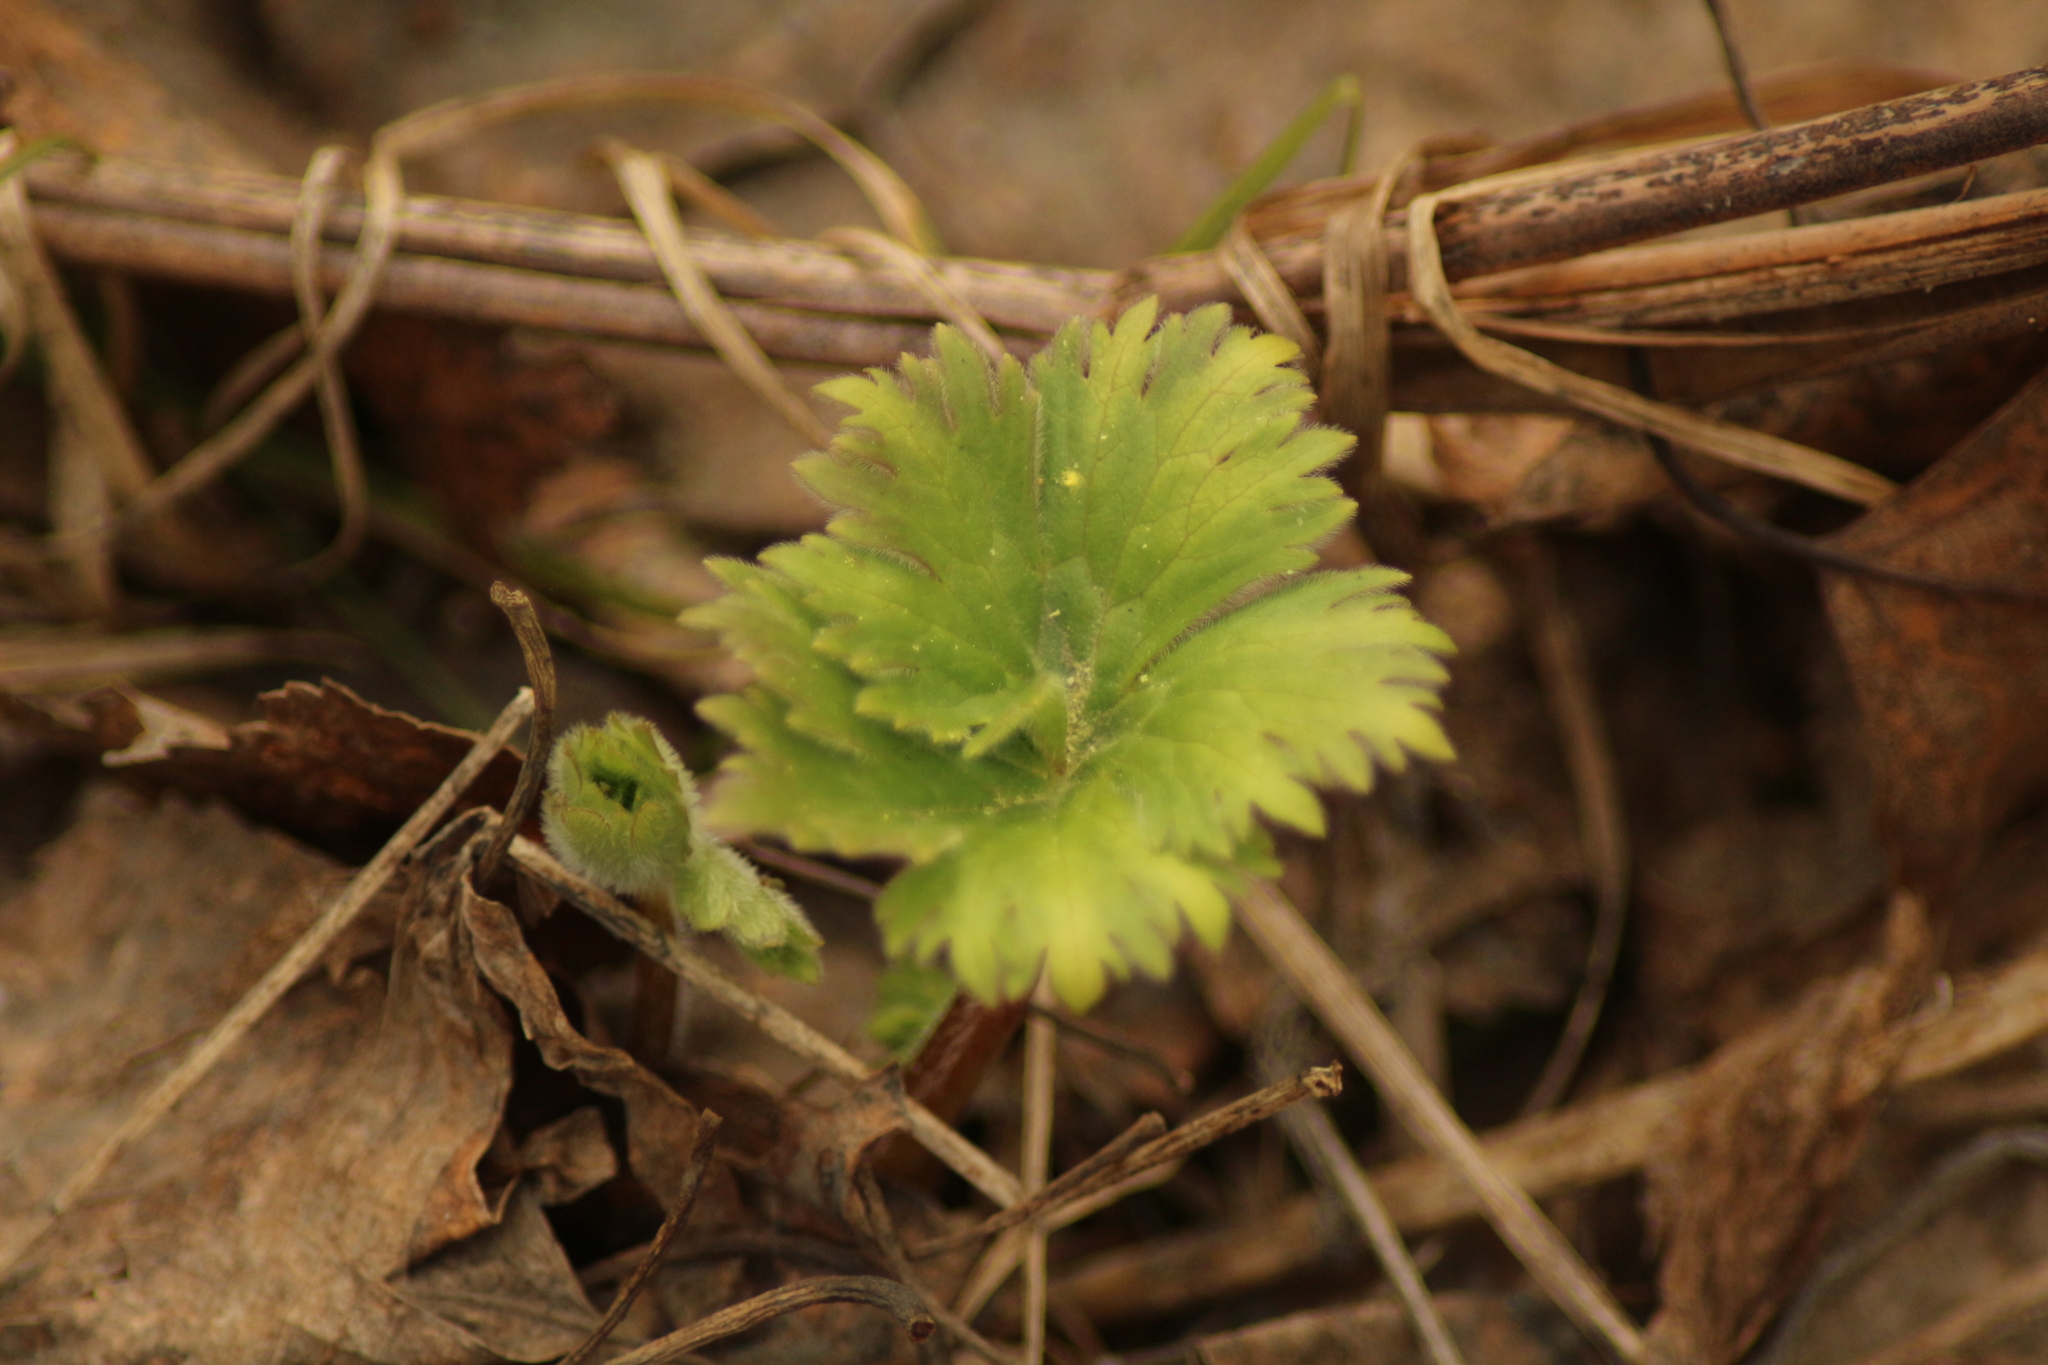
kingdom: Plantae
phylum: Tracheophyta
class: Magnoliopsida
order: Ranunculales
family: Ranunculaceae
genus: Aconitum
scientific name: Aconitum septentrionale
